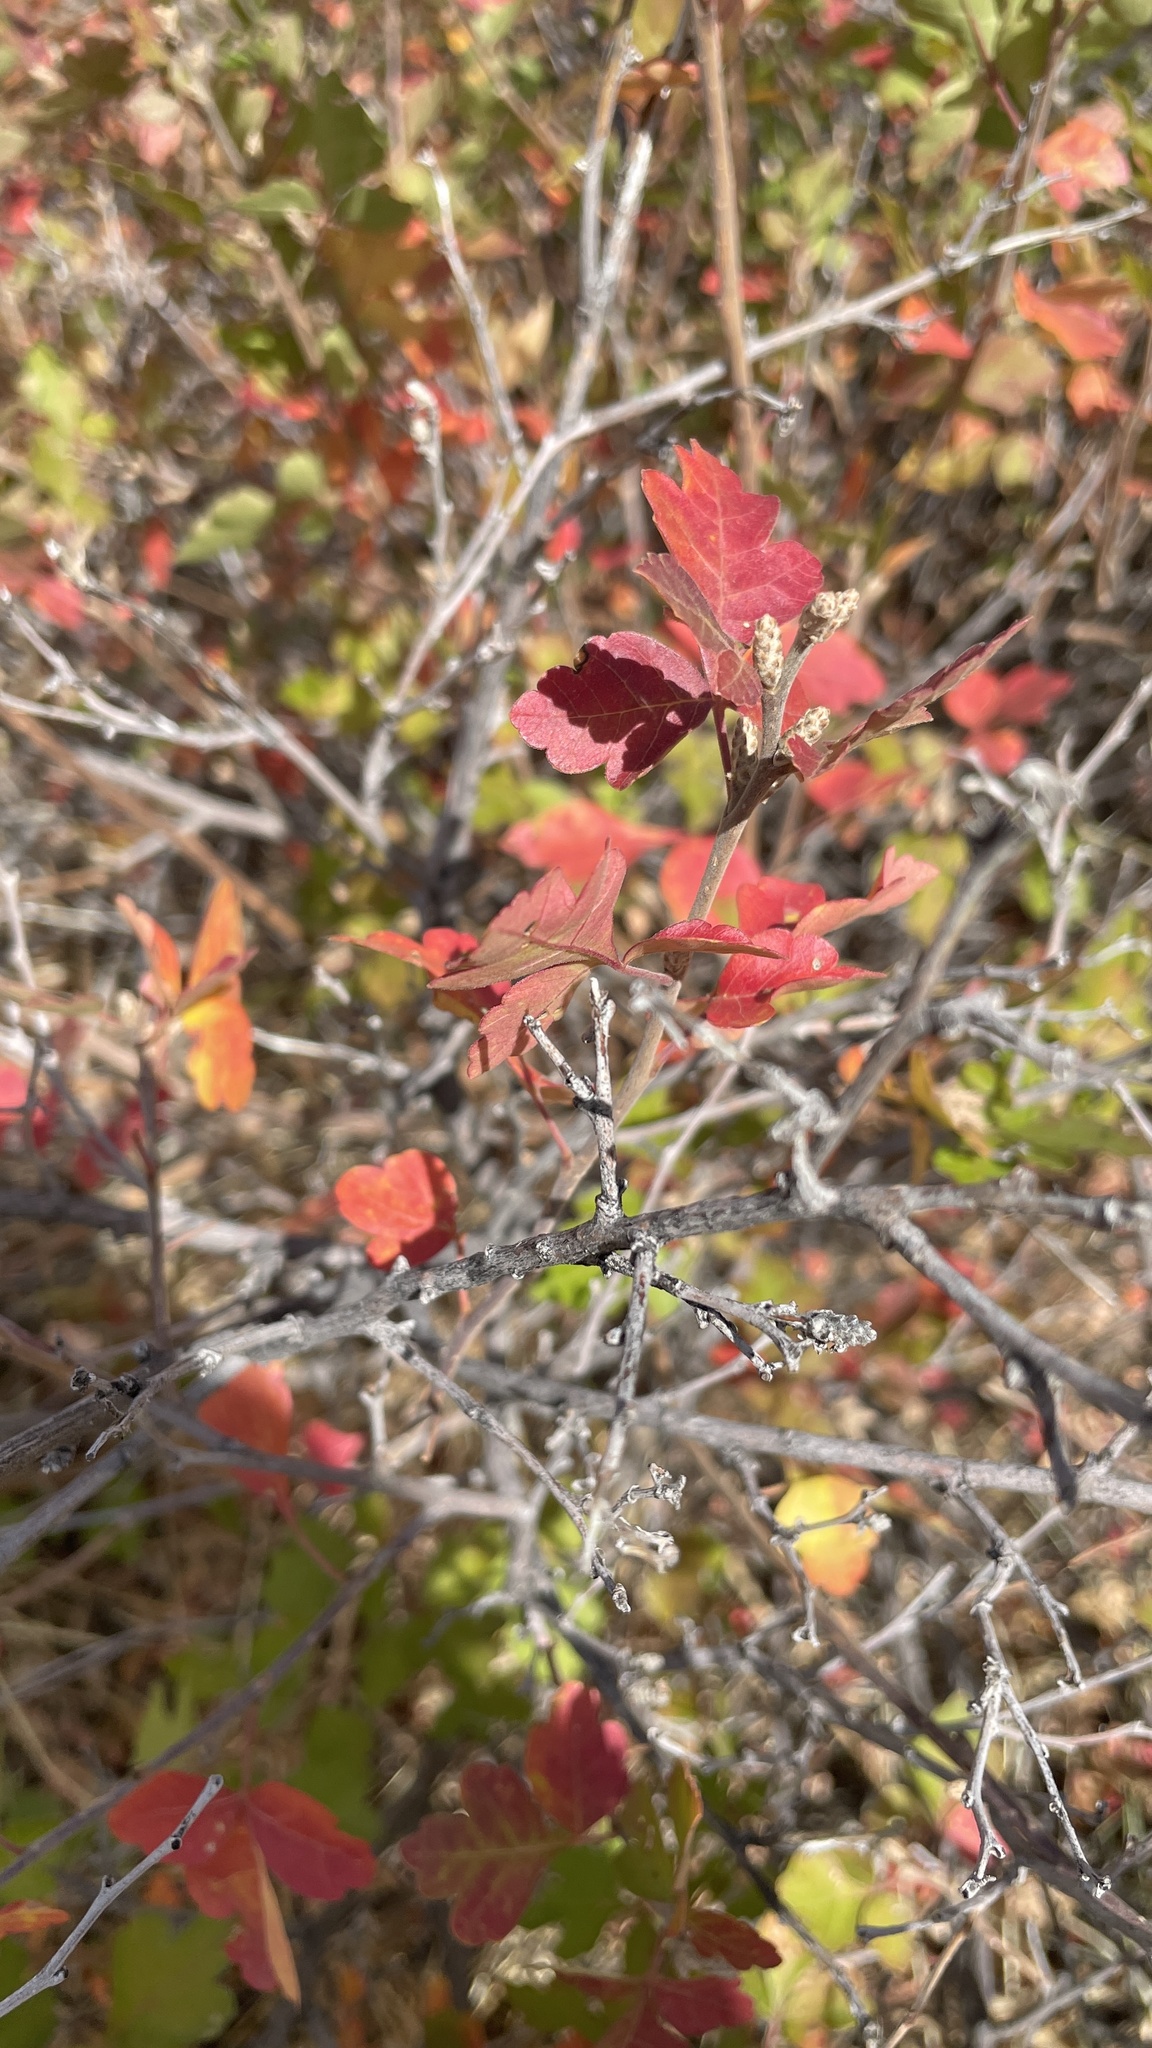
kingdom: Plantae
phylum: Tracheophyta
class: Magnoliopsida
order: Sapindales
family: Anacardiaceae
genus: Rhus
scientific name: Rhus trilobata
